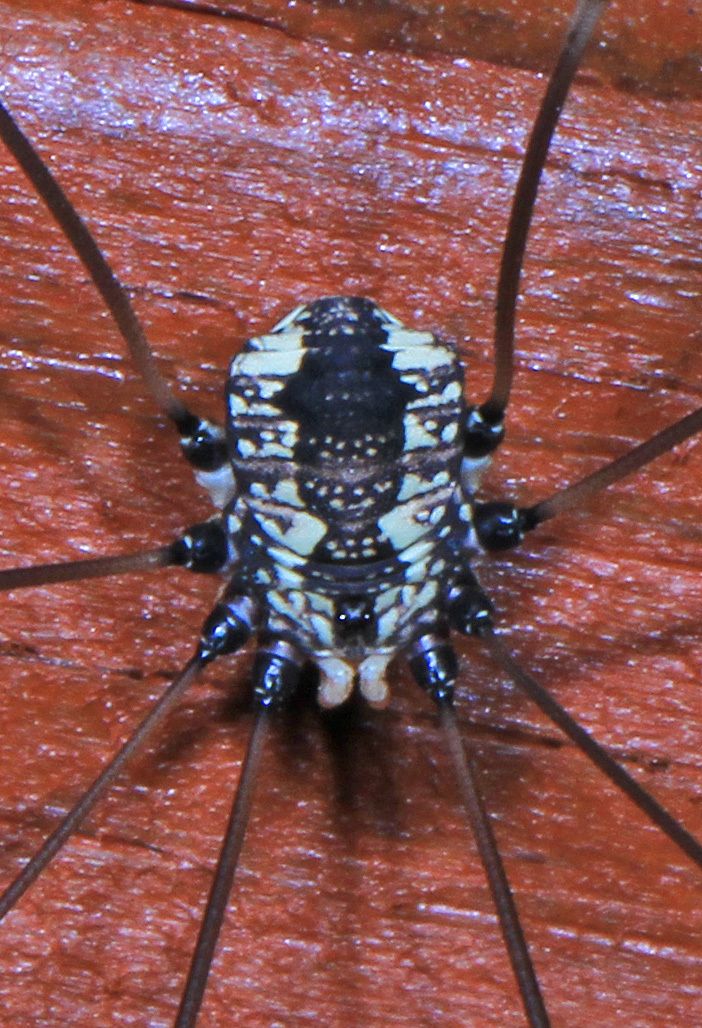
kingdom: Animalia
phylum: Arthropoda
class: Arachnida
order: Opiliones
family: Sclerosomatidae
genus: Leiobunum
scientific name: Leiobunum vittatum
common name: Eastern harvestman
